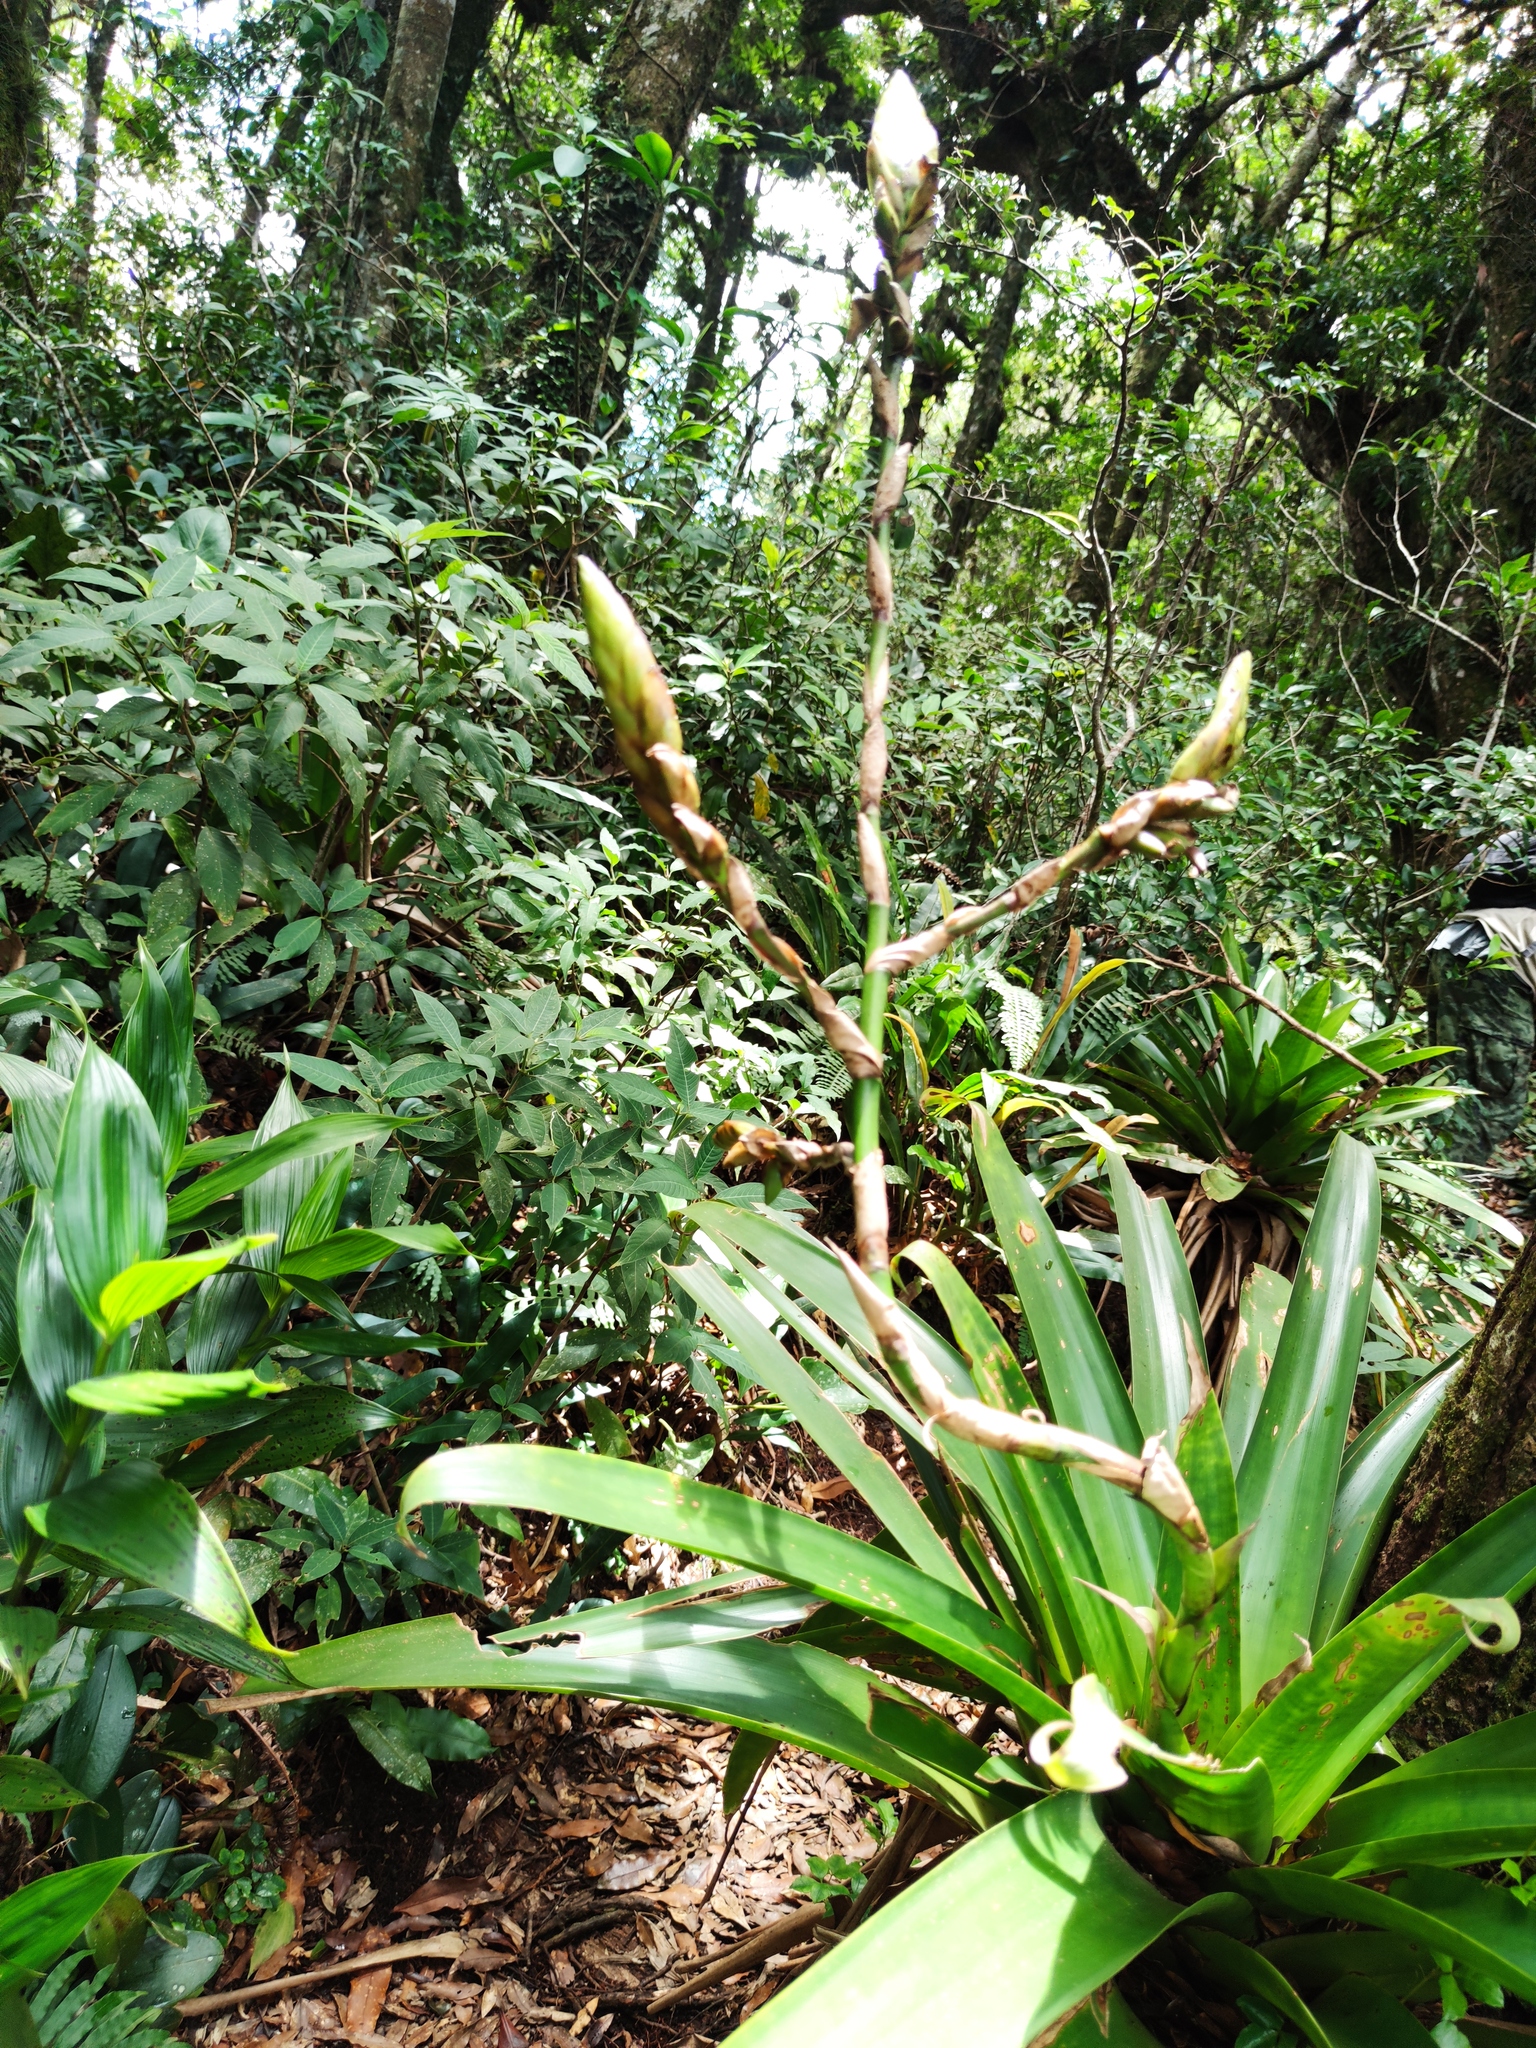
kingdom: Plantae
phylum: Tracheophyta
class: Liliopsida
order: Poales
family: Bromeliaceae
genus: Werauhia
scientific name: Werauhia werckleana
